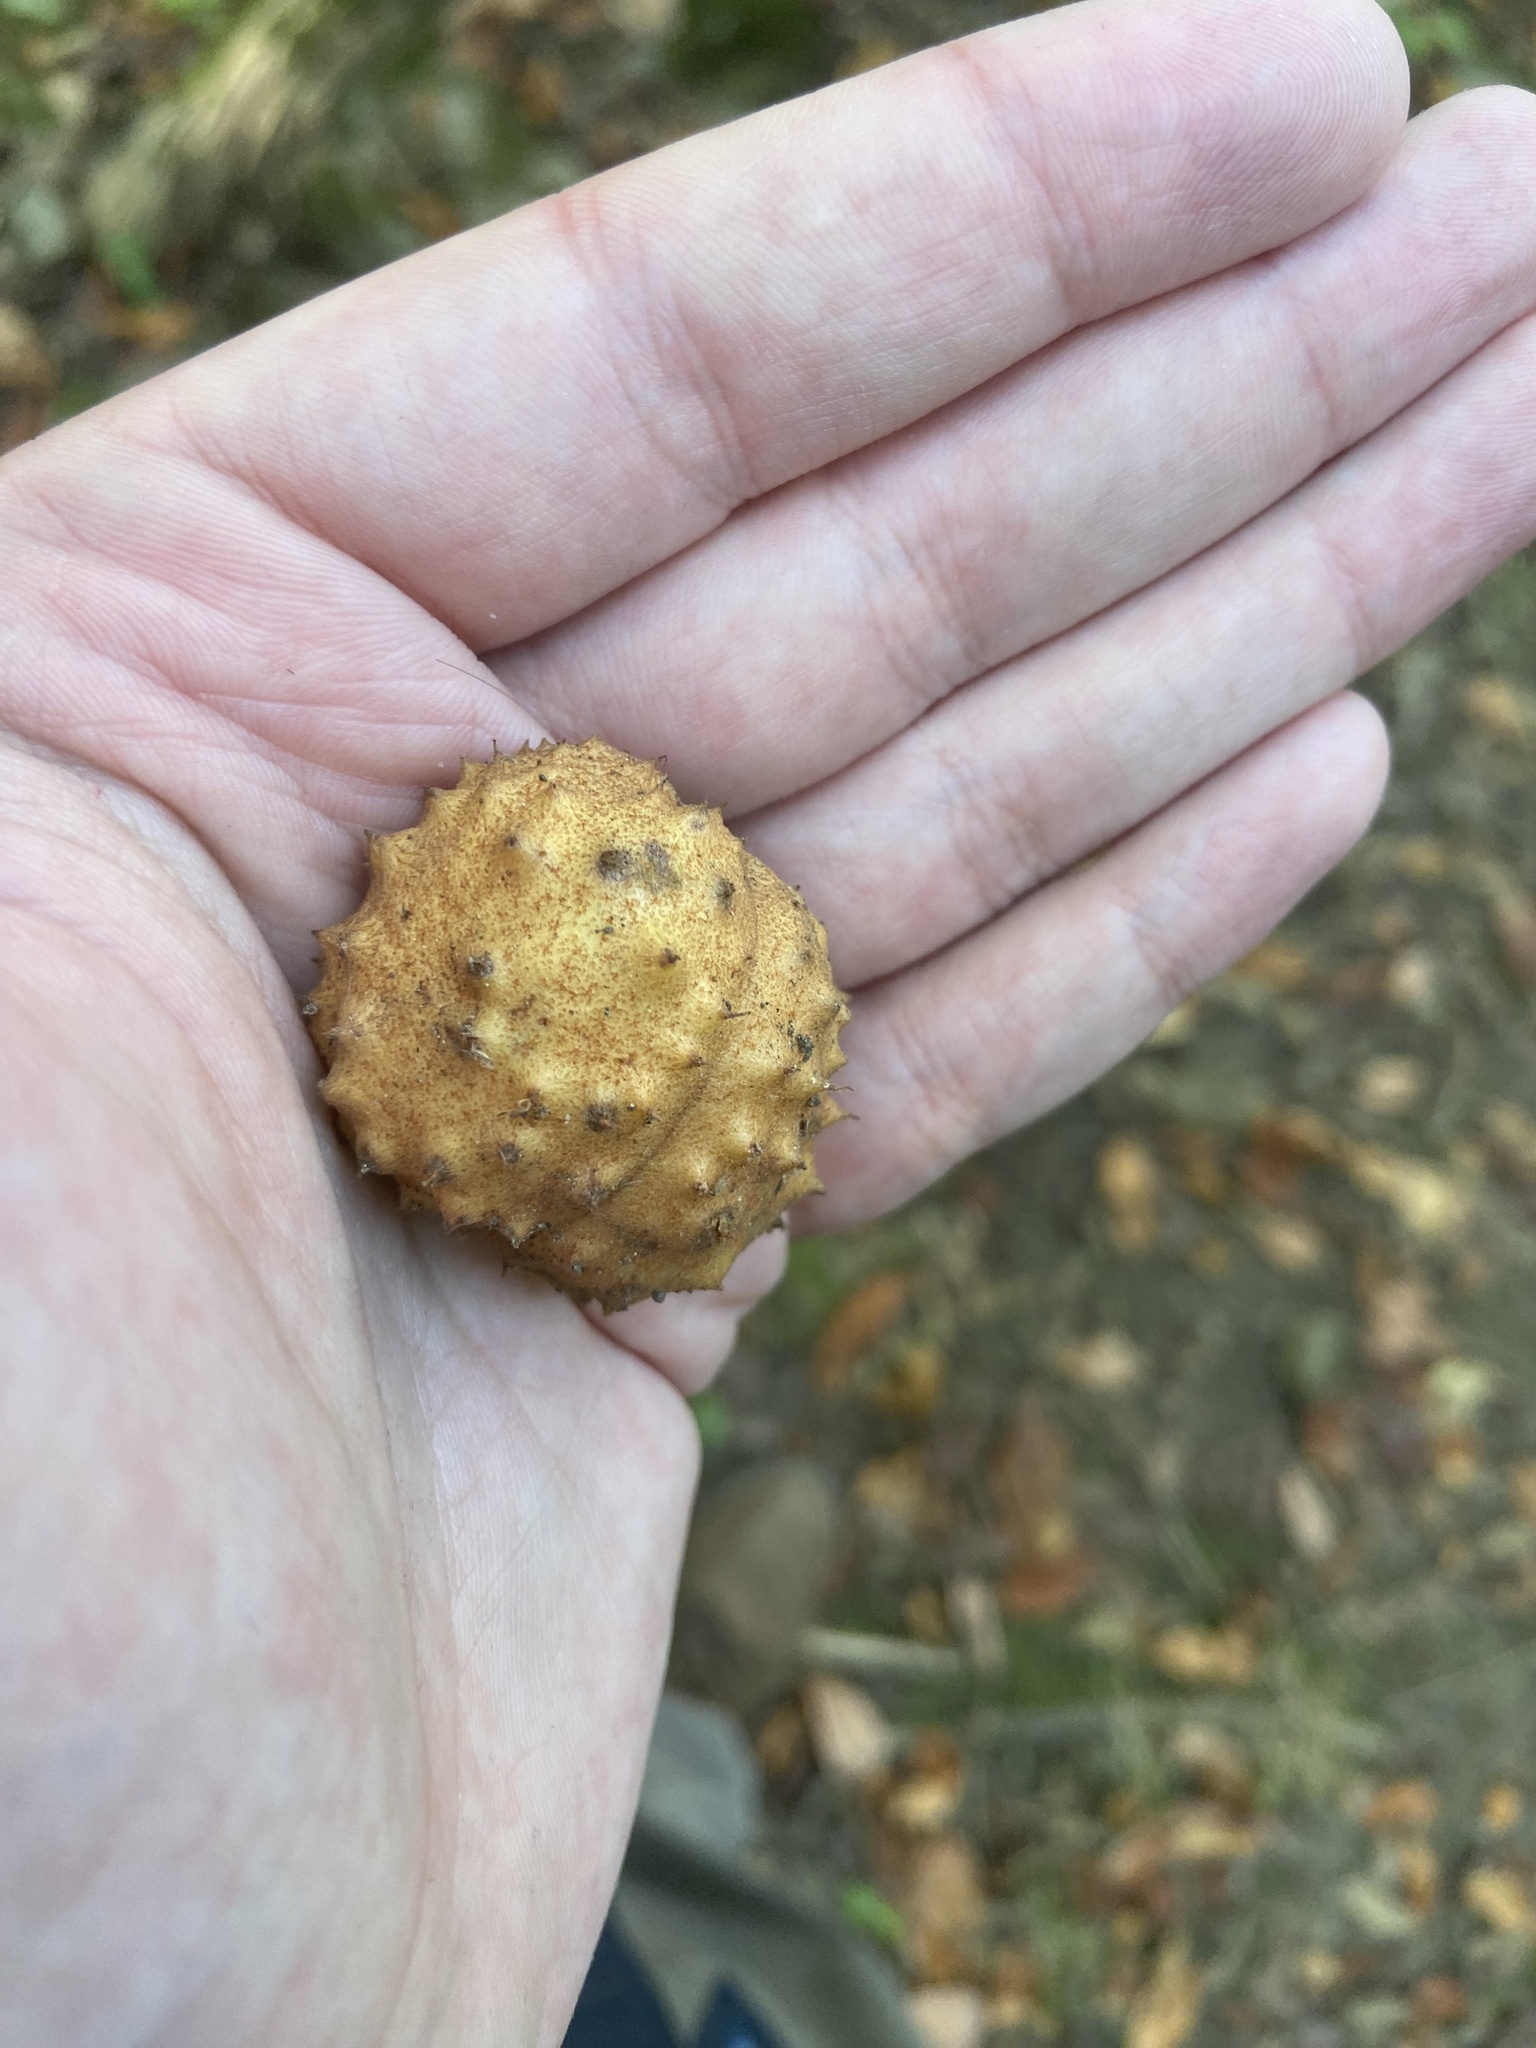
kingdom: Plantae
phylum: Tracheophyta
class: Magnoliopsida
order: Sapindales
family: Sapindaceae
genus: Aesculus
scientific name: Aesculus glabra
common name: Ohio buckeye
